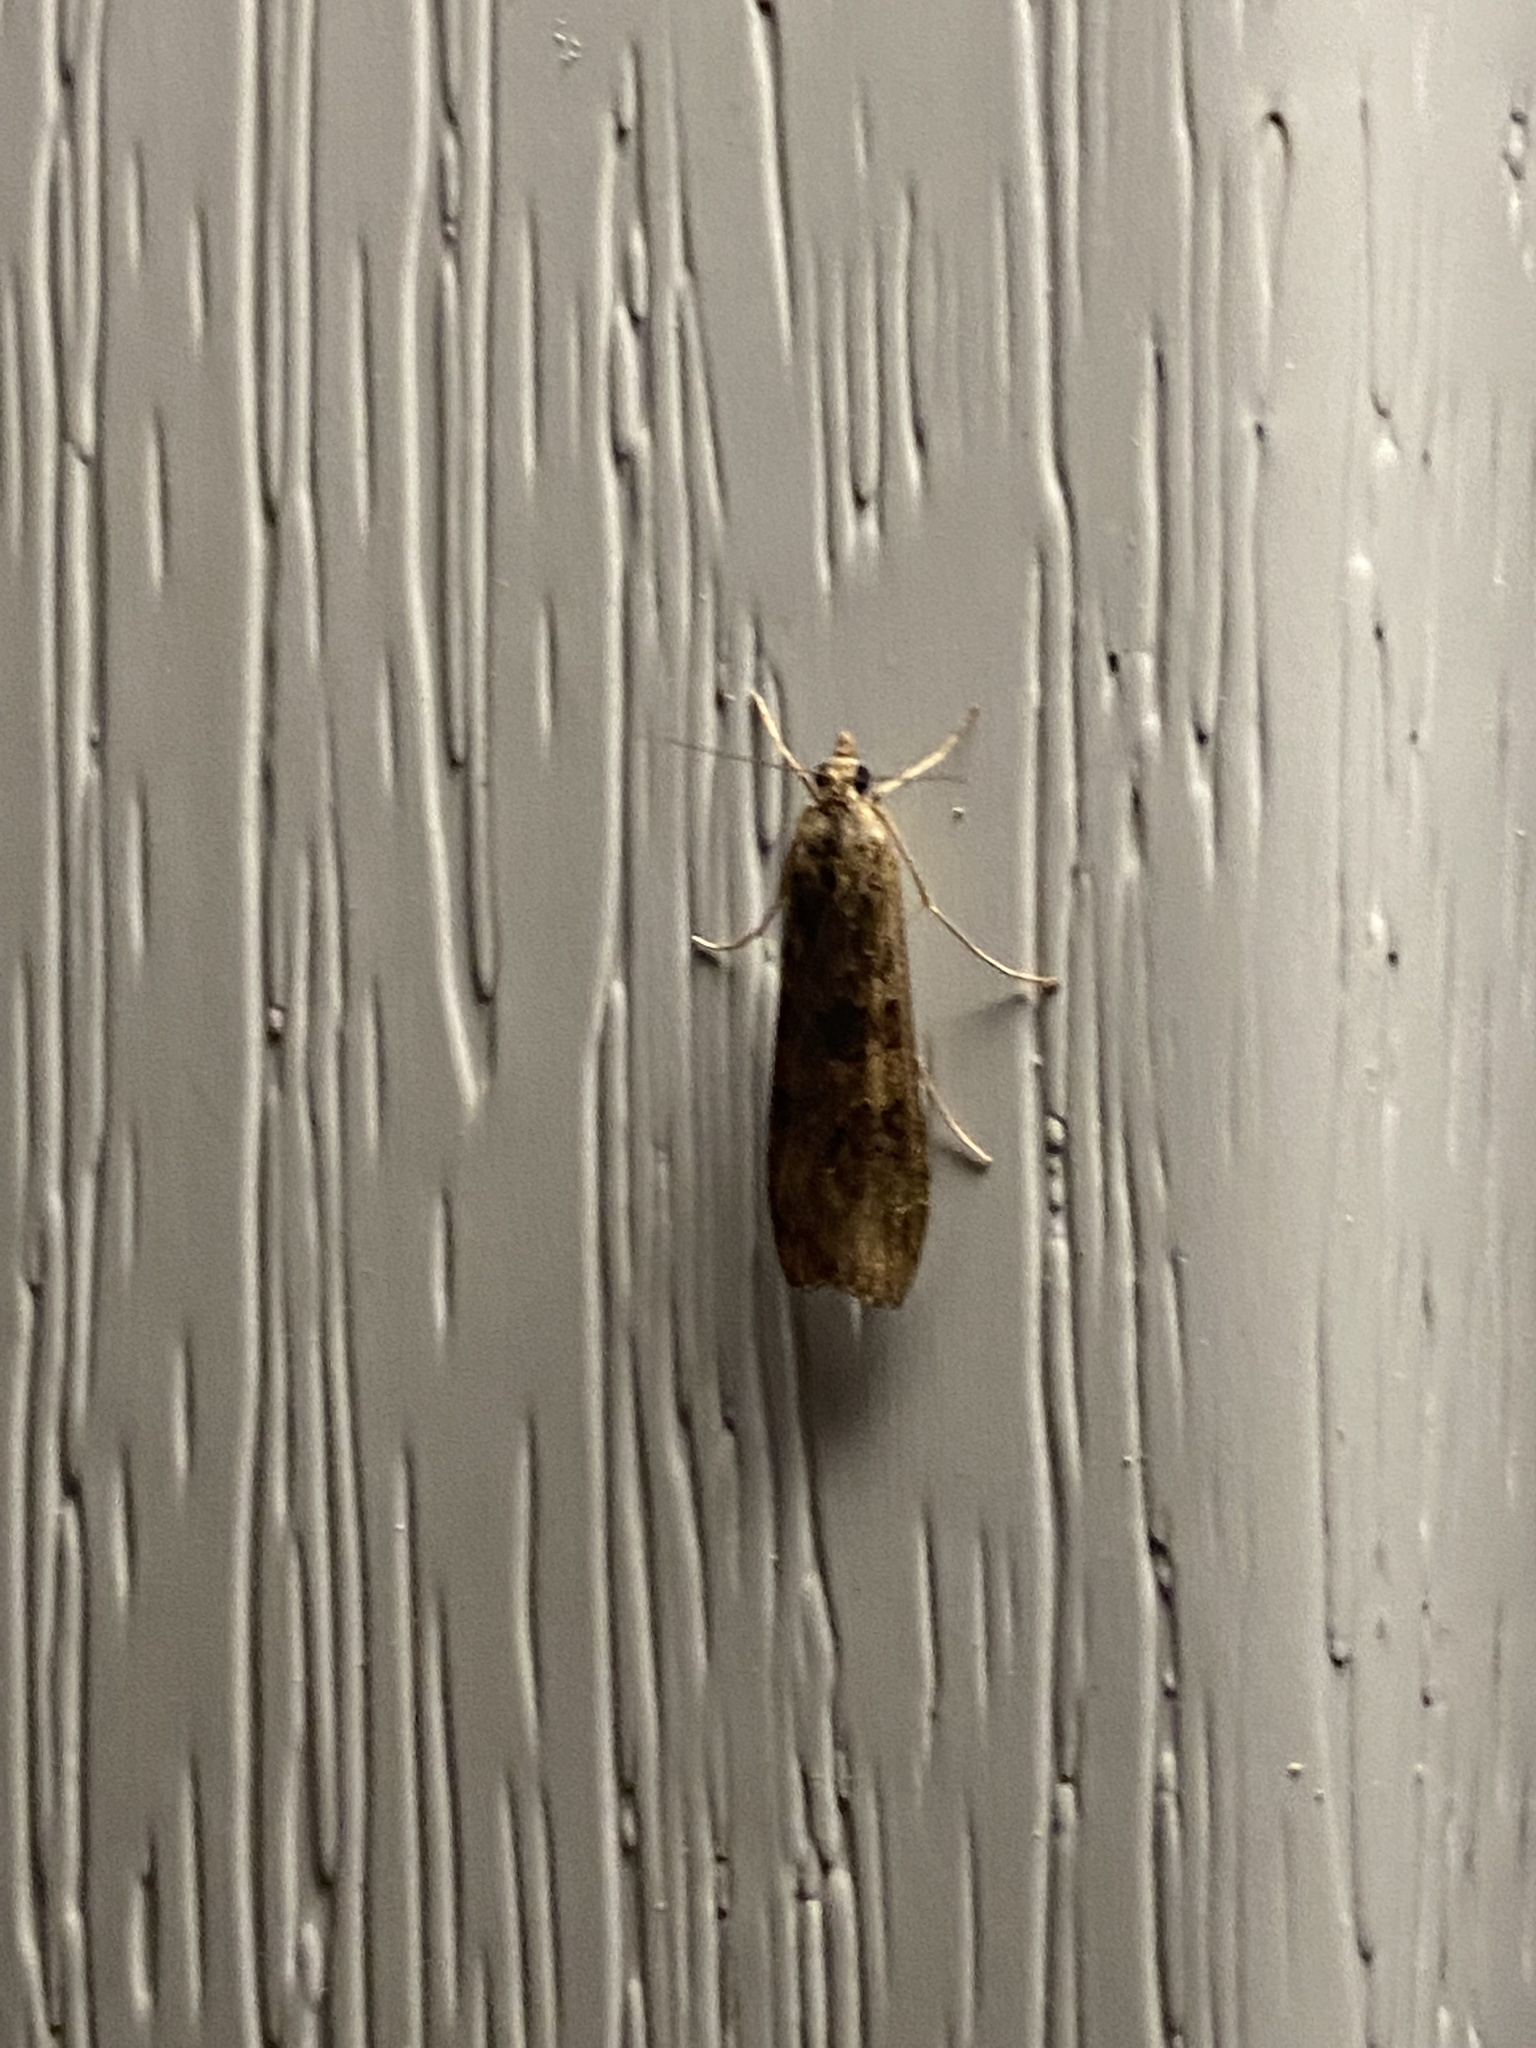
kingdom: Animalia
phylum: Arthropoda
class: Insecta
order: Lepidoptera
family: Crambidae
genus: Nomophila
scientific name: Nomophila noctuella
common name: Rush veneer
